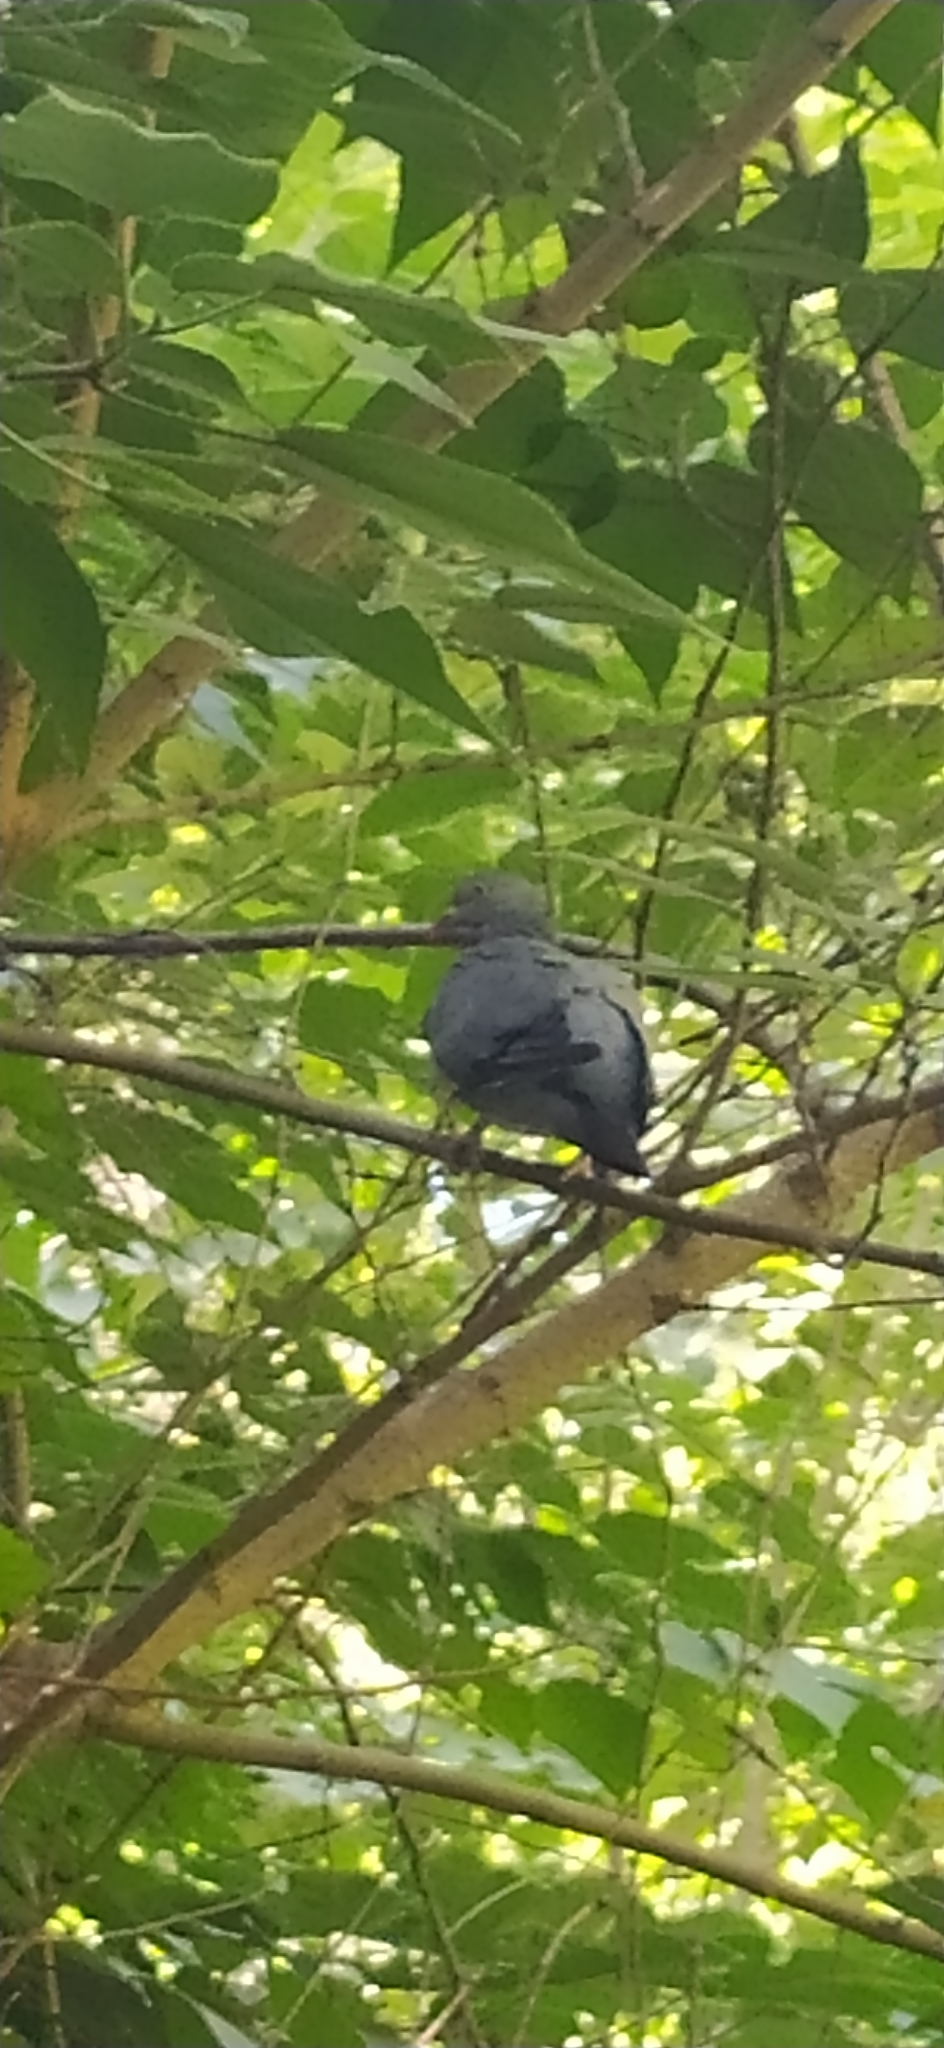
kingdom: Animalia
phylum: Chordata
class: Aves
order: Columbiformes
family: Columbidae
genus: Columba
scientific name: Columba palumbus
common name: Common wood pigeon
